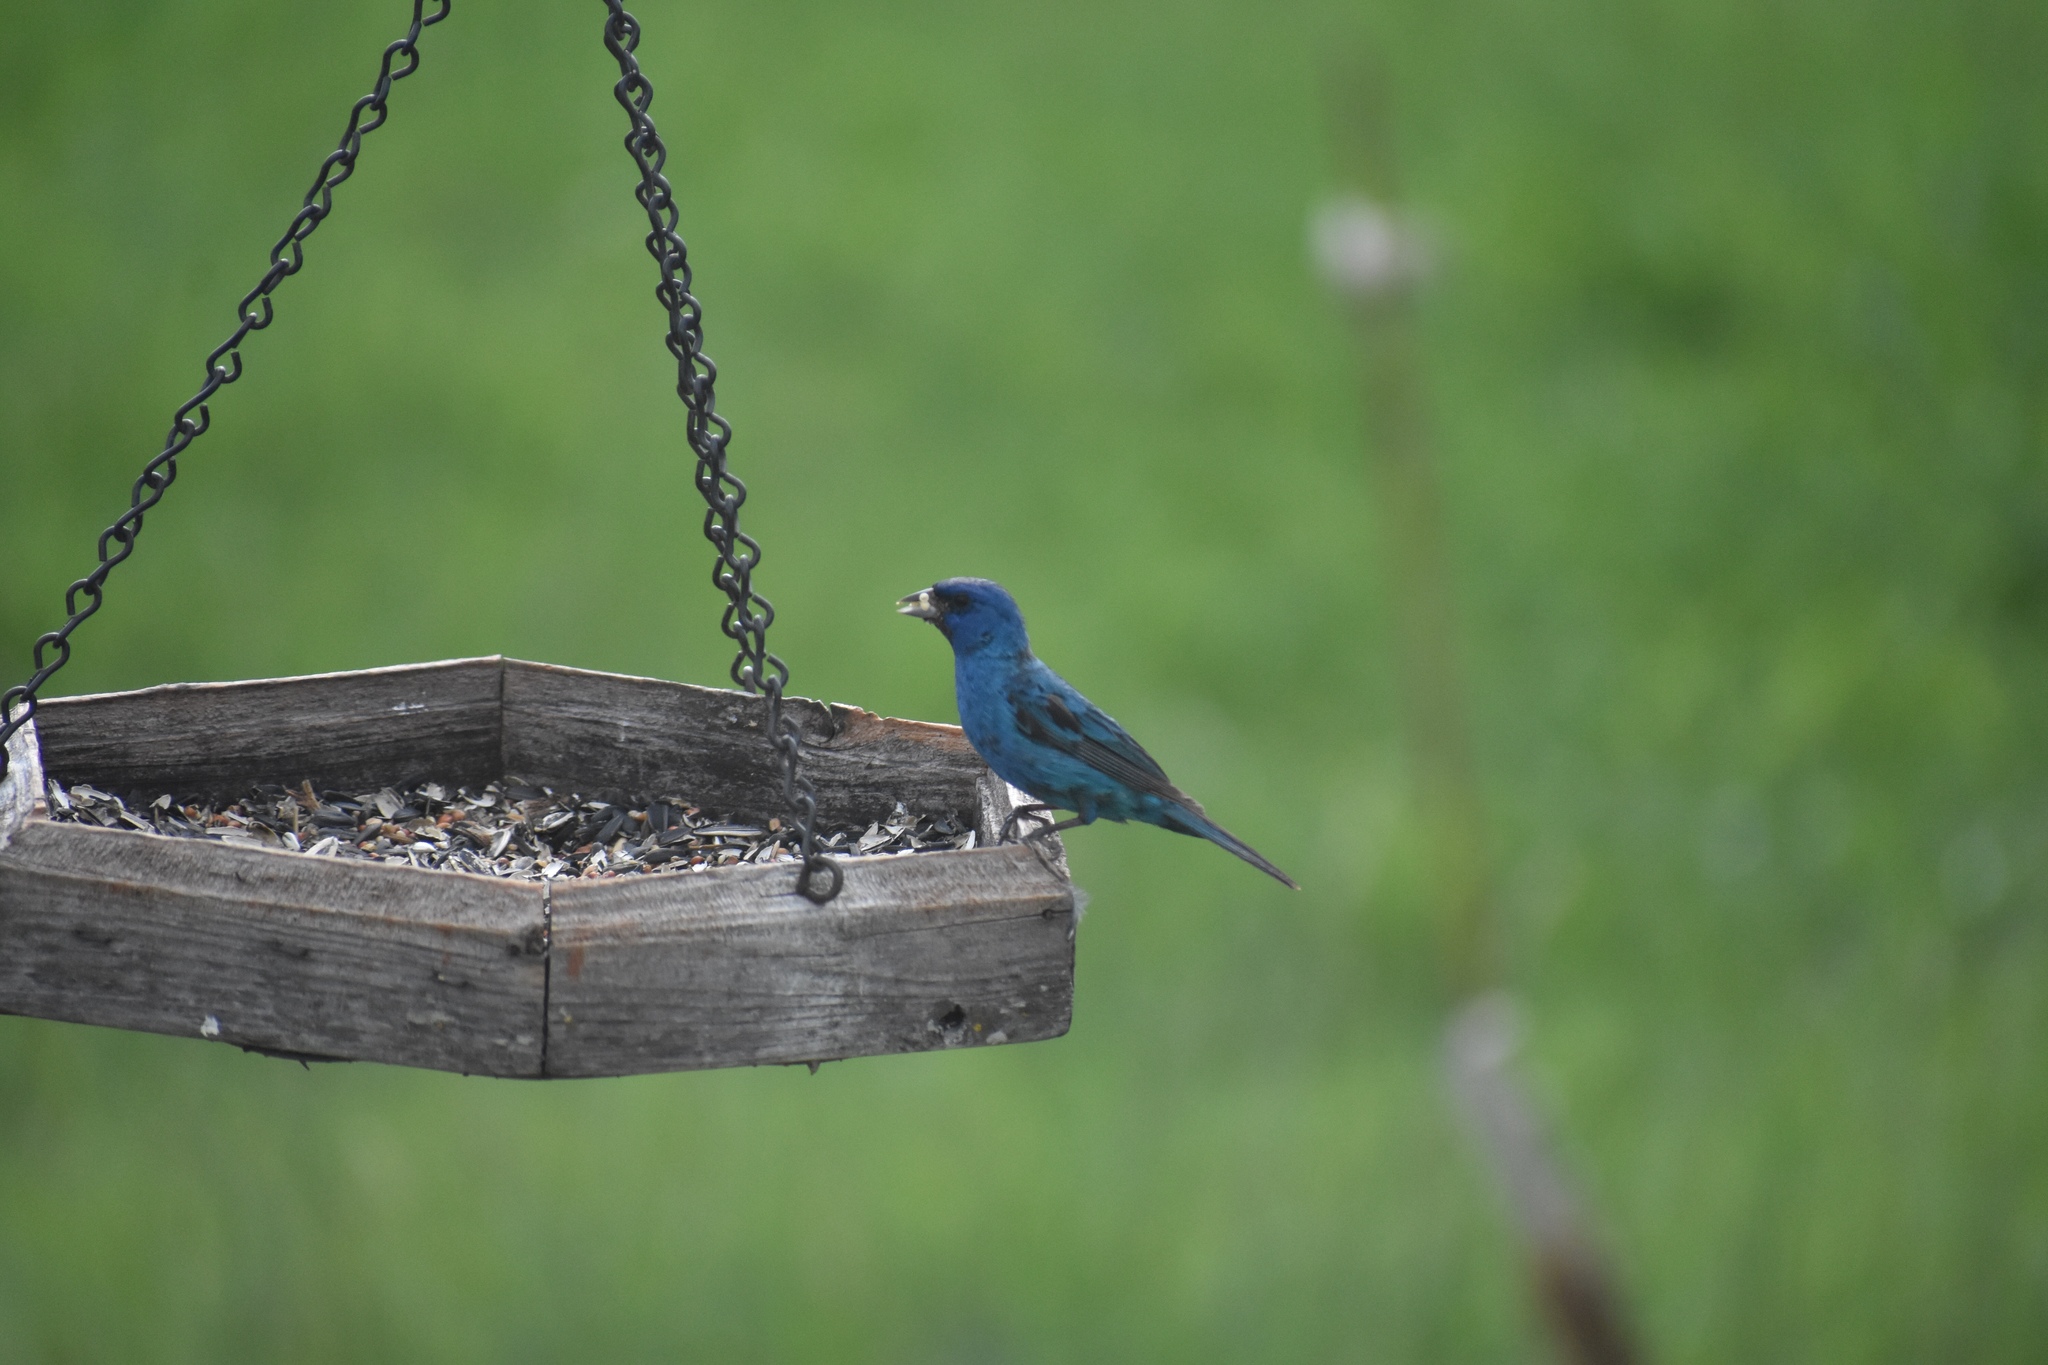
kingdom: Animalia
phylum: Chordata
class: Aves
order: Passeriformes
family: Cardinalidae
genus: Passerina
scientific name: Passerina cyanea
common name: Indigo bunting
